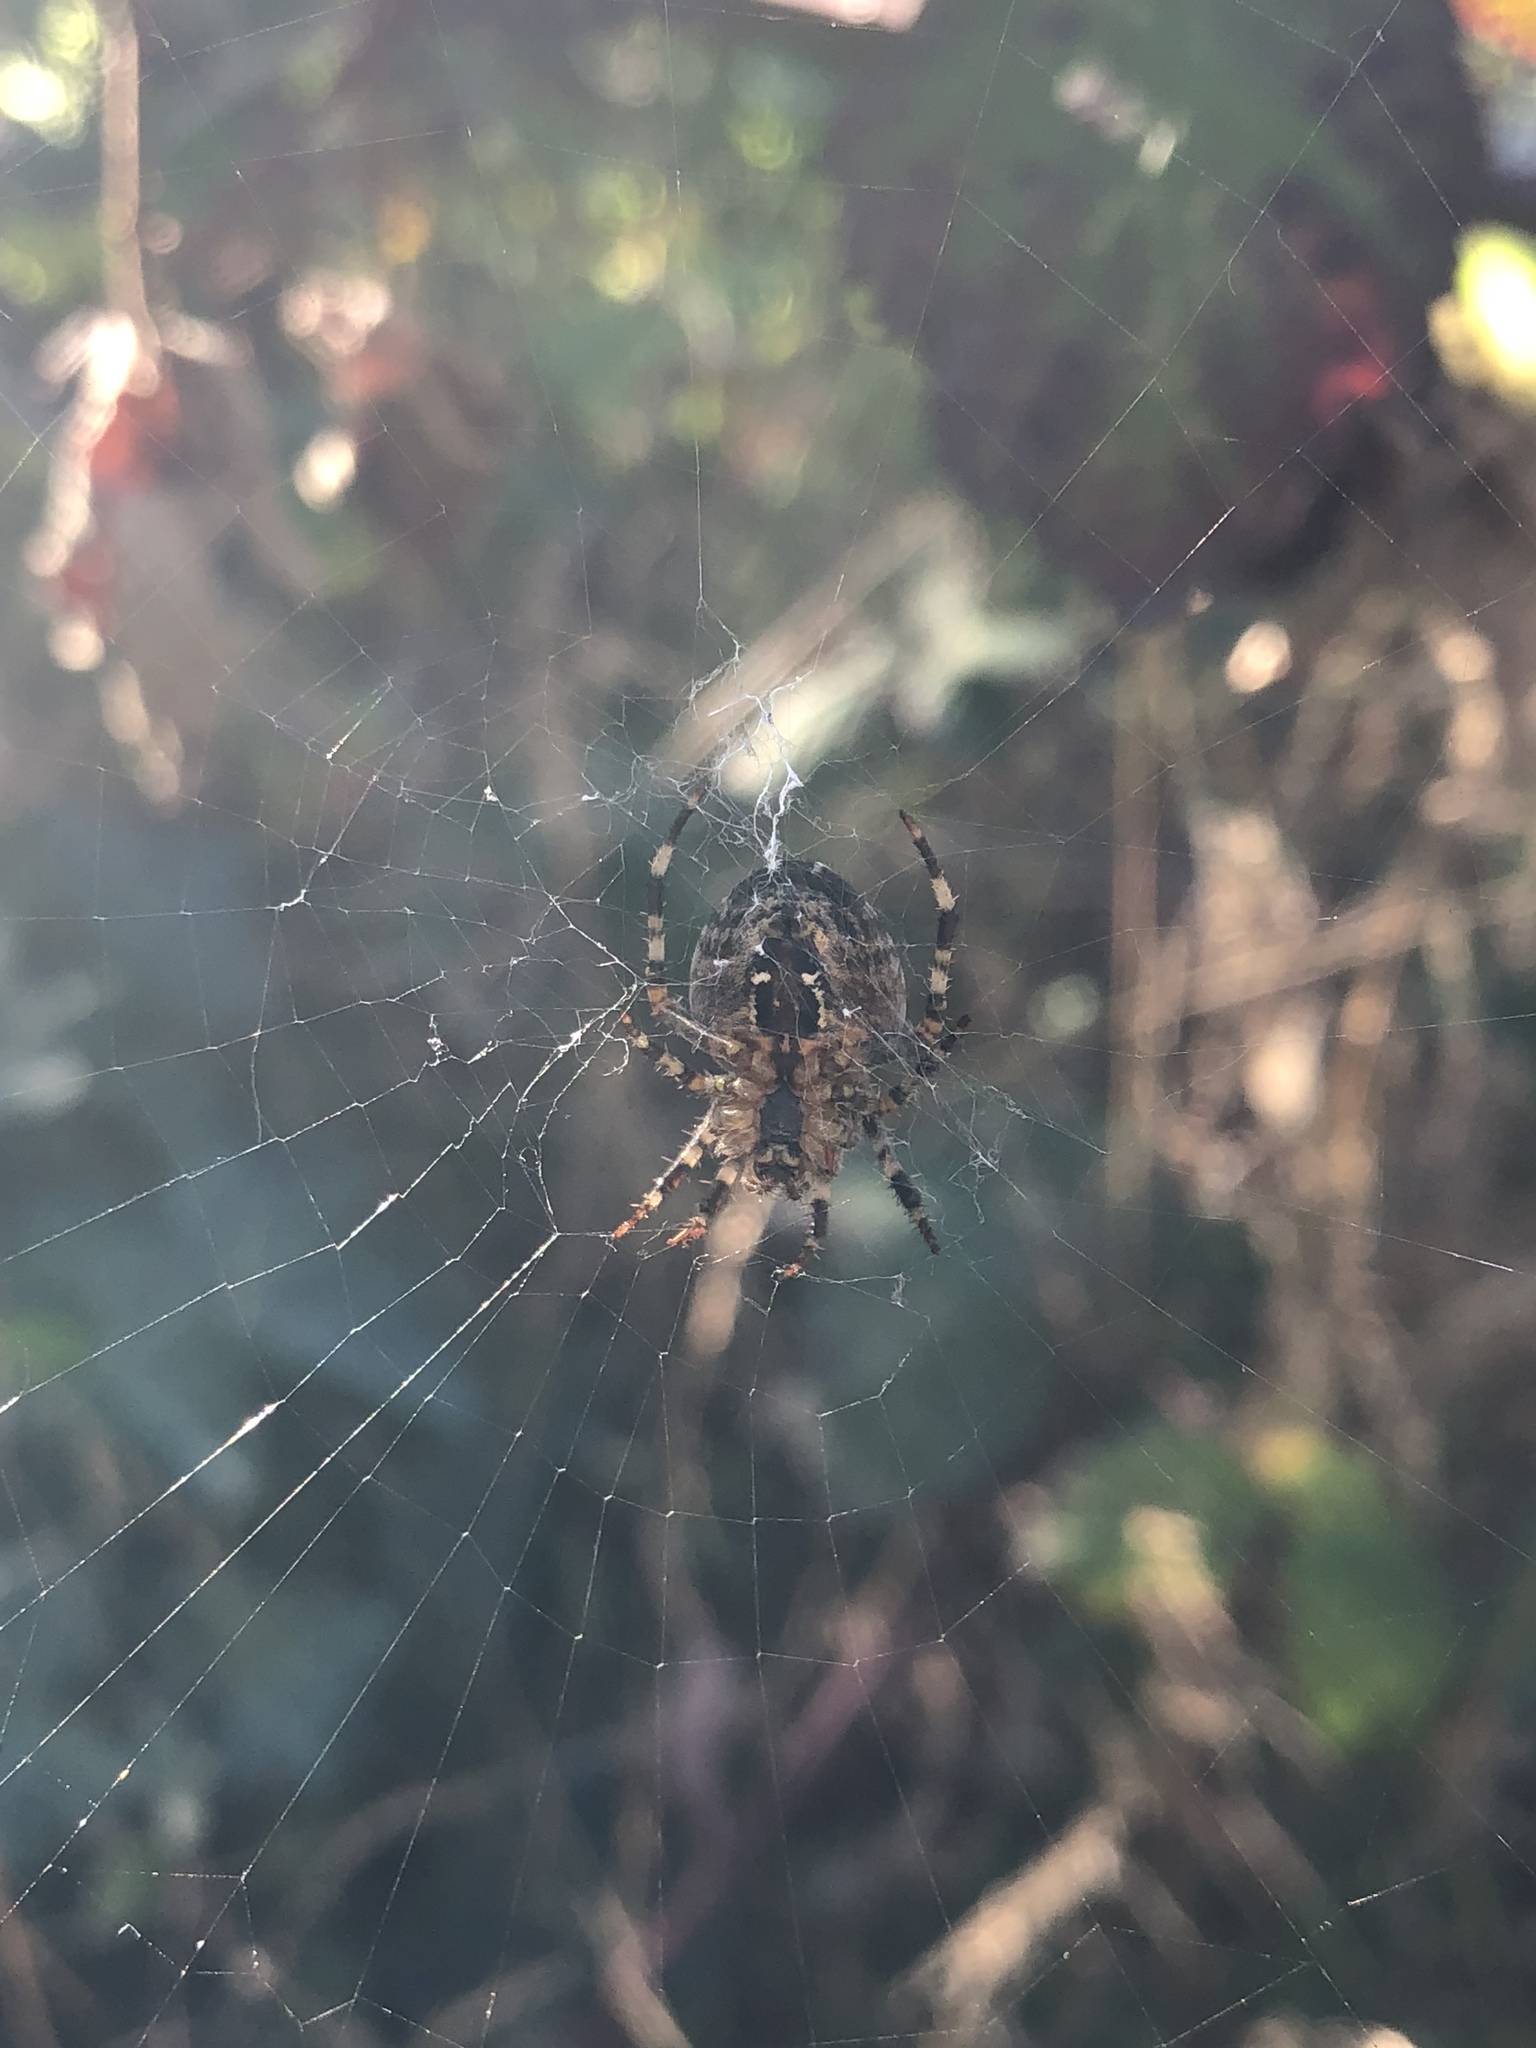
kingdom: Animalia
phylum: Arthropoda
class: Arachnida
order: Araneae
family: Araneidae
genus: Araneus
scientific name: Araneus diadematus
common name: Cross orbweaver
